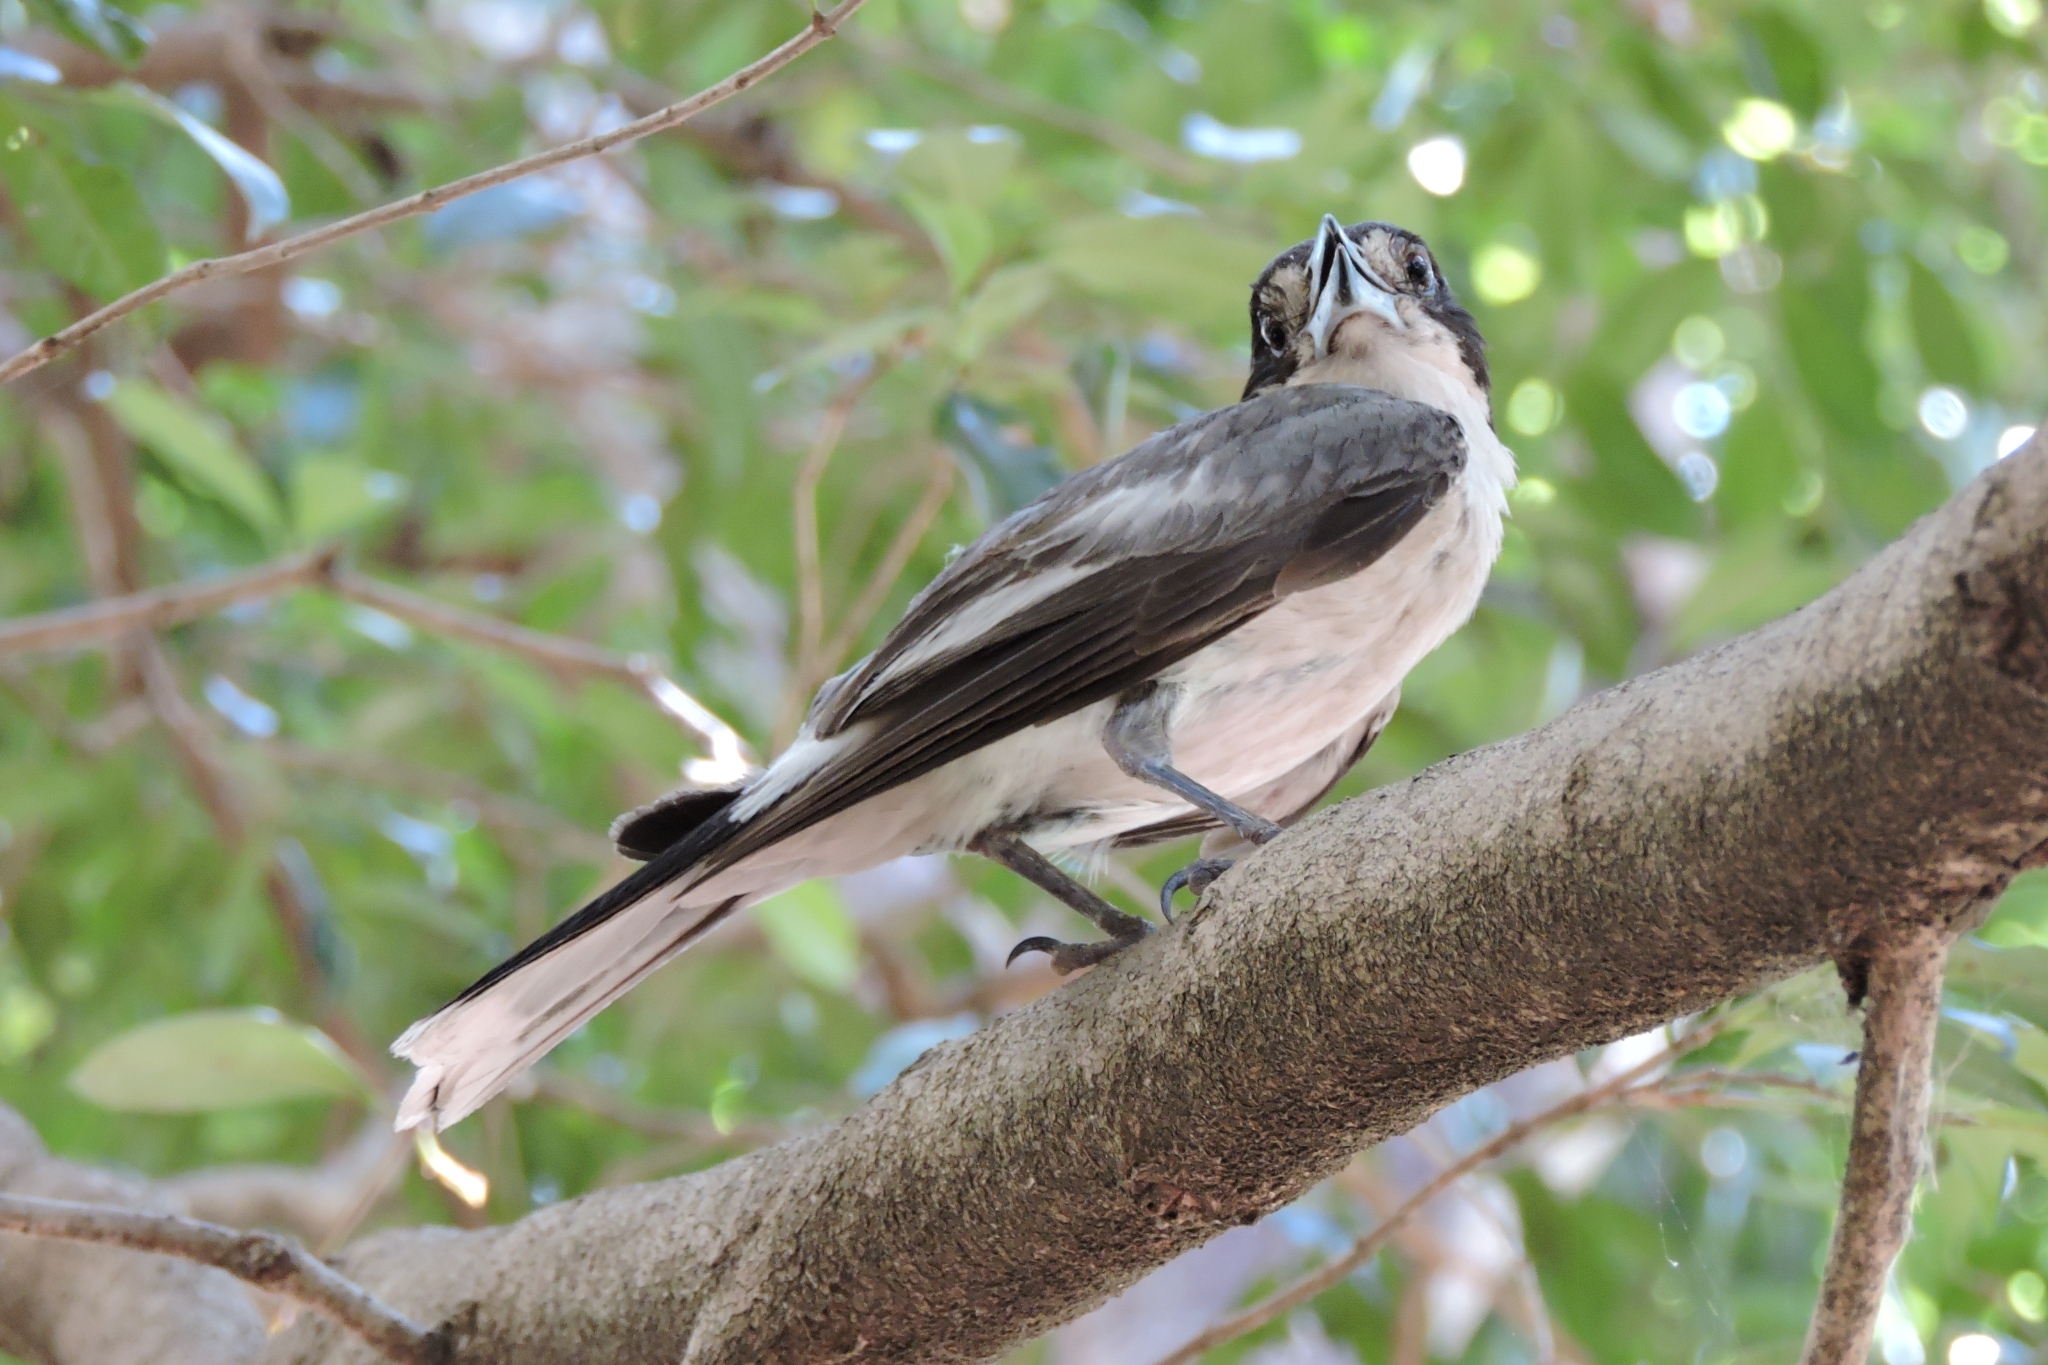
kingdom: Animalia
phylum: Chordata
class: Aves
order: Passeriformes
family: Cracticidae
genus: Cracticus
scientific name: Cracticus torquatus
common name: Grey butcherbird
